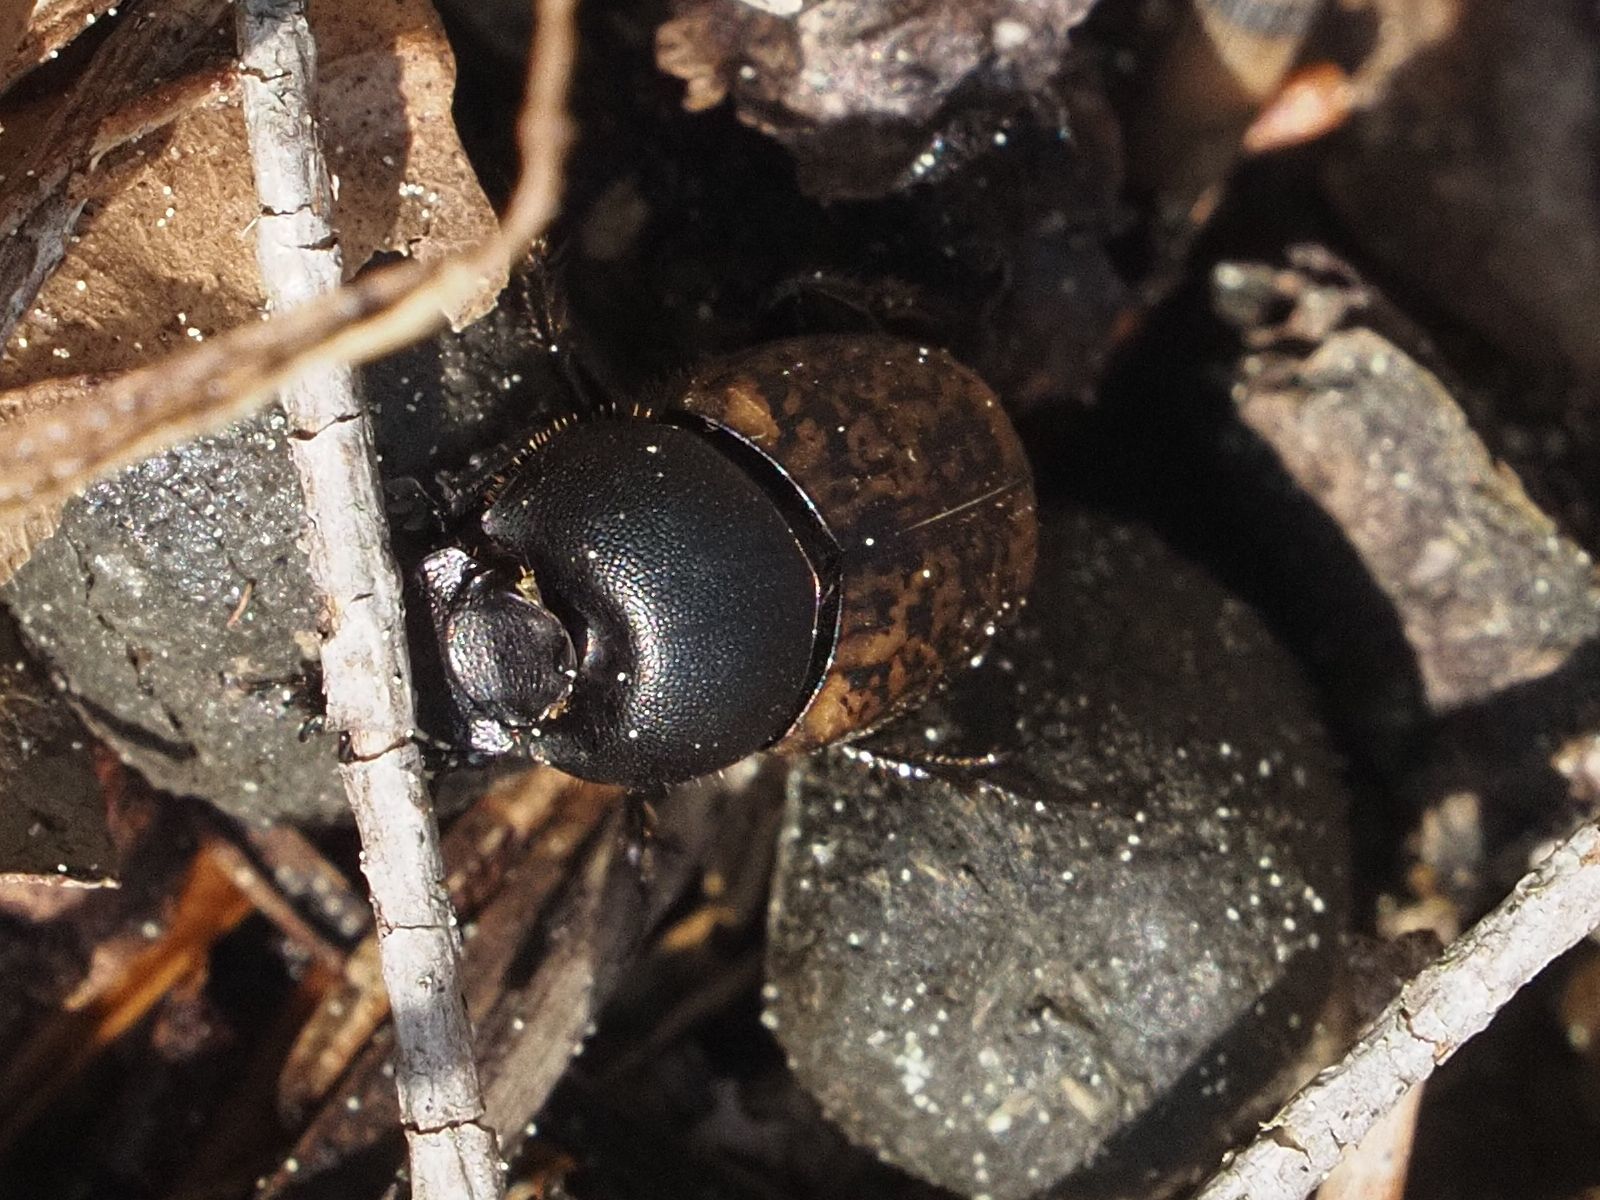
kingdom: Animalia
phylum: Arthropoda
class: Insecta
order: Coleoptera
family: Scarabaeidae
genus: Onthophagus
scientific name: Onthophagus fracticornis
